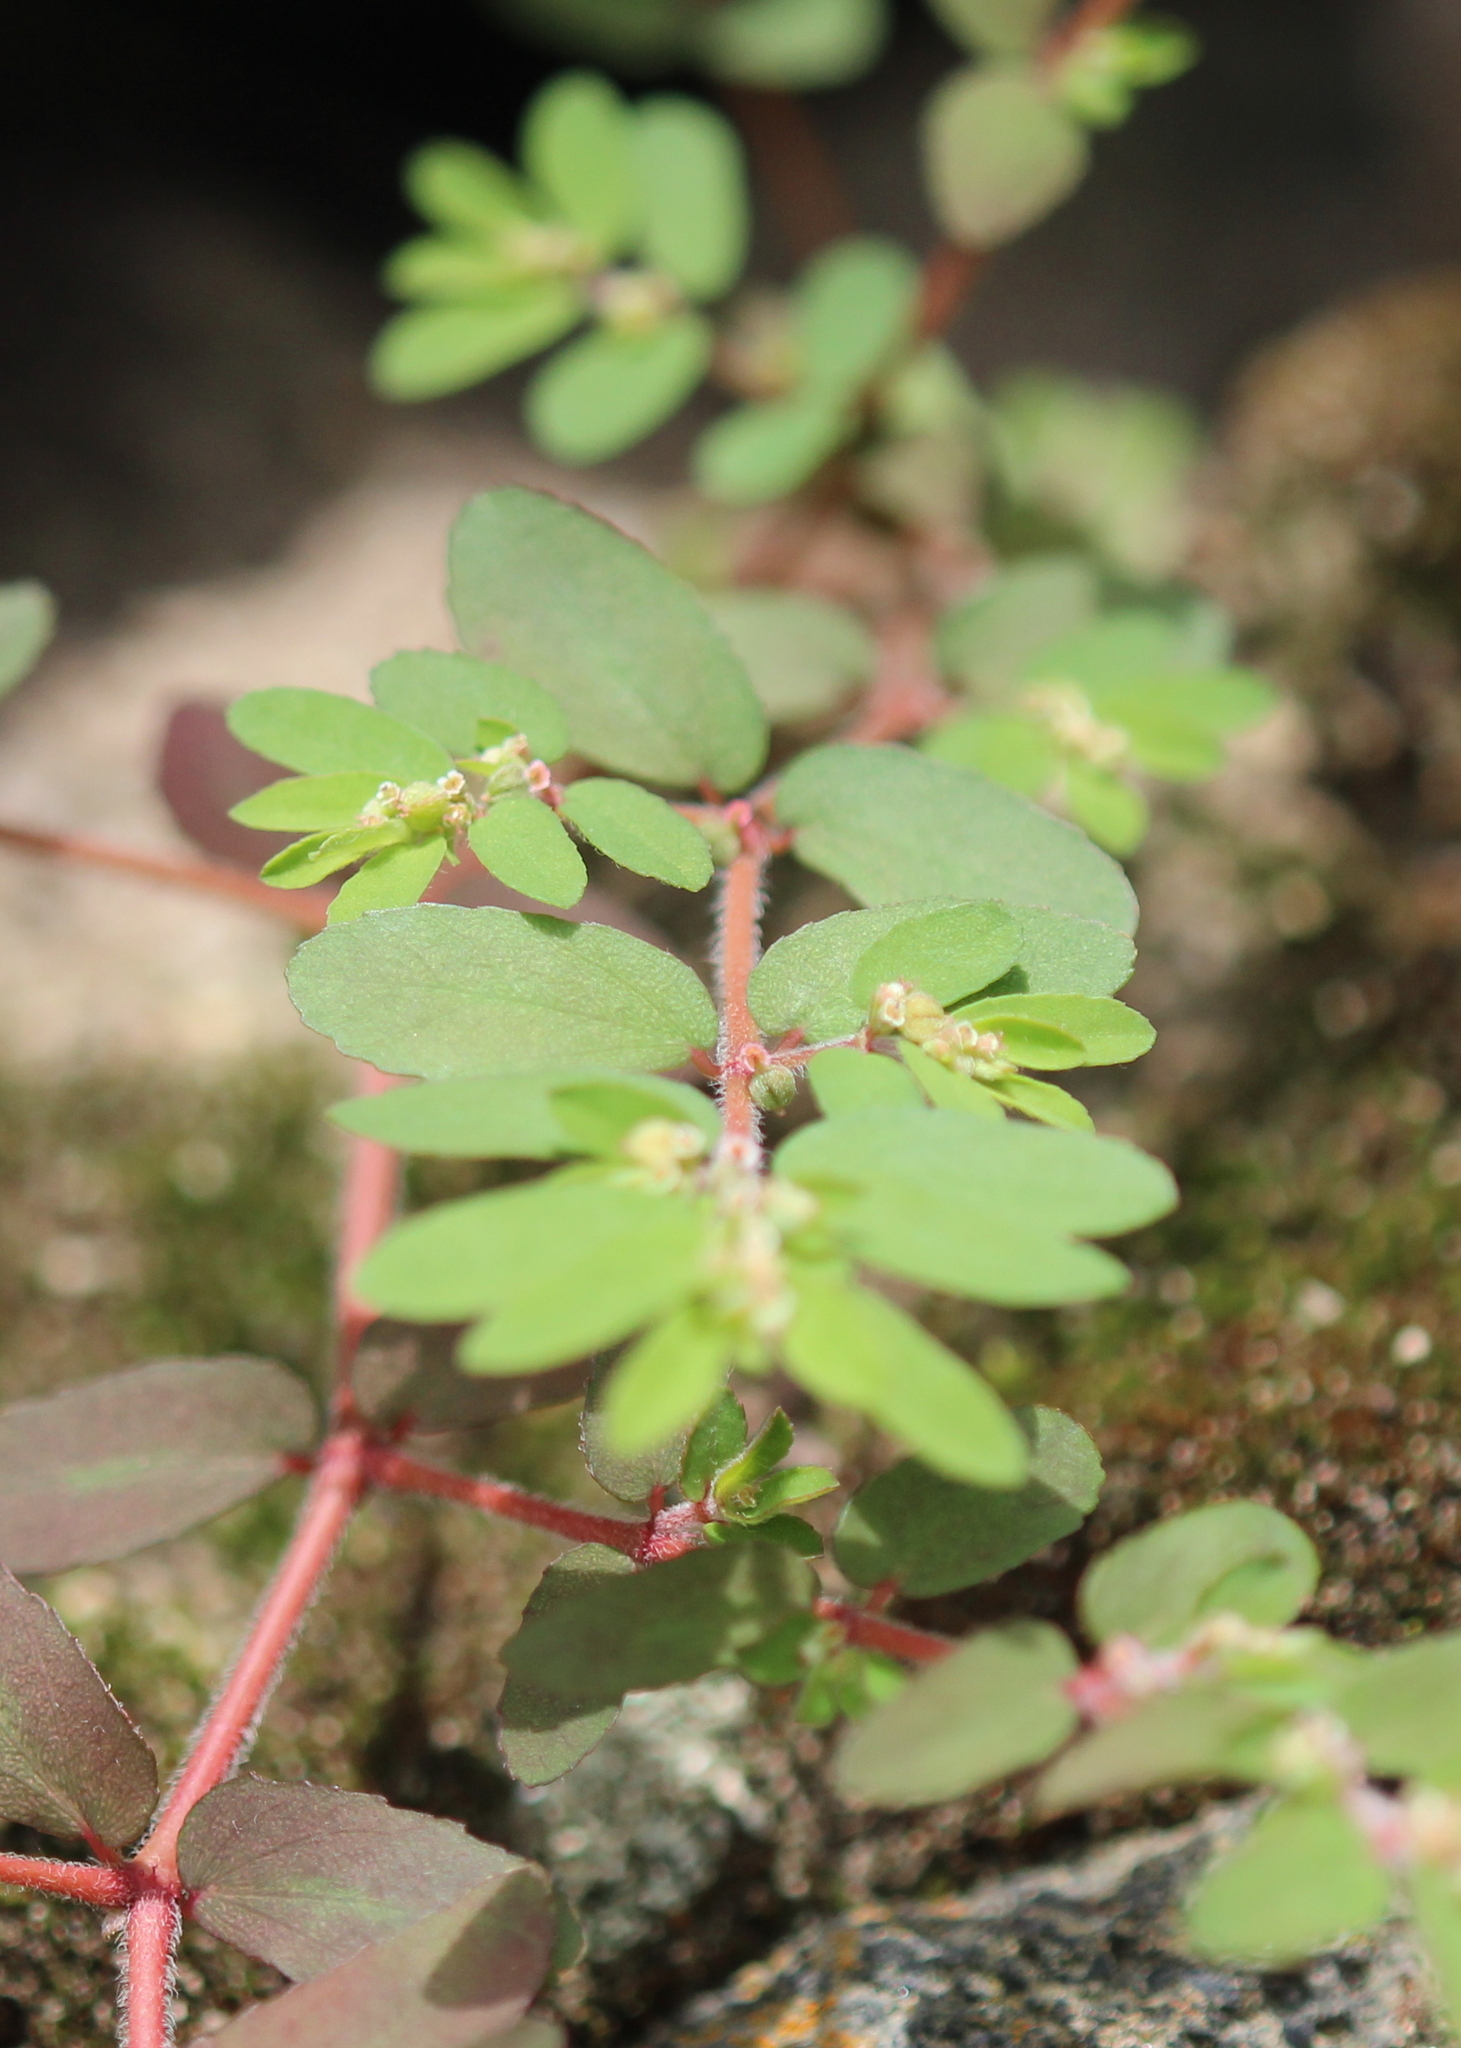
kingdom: Plantae
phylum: Tracheophyta
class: Magnoliopsida
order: Malpighiales
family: Euphorbiaceae
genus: Euphorbia
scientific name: Euphorbia maculata
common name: Spotted spurge
